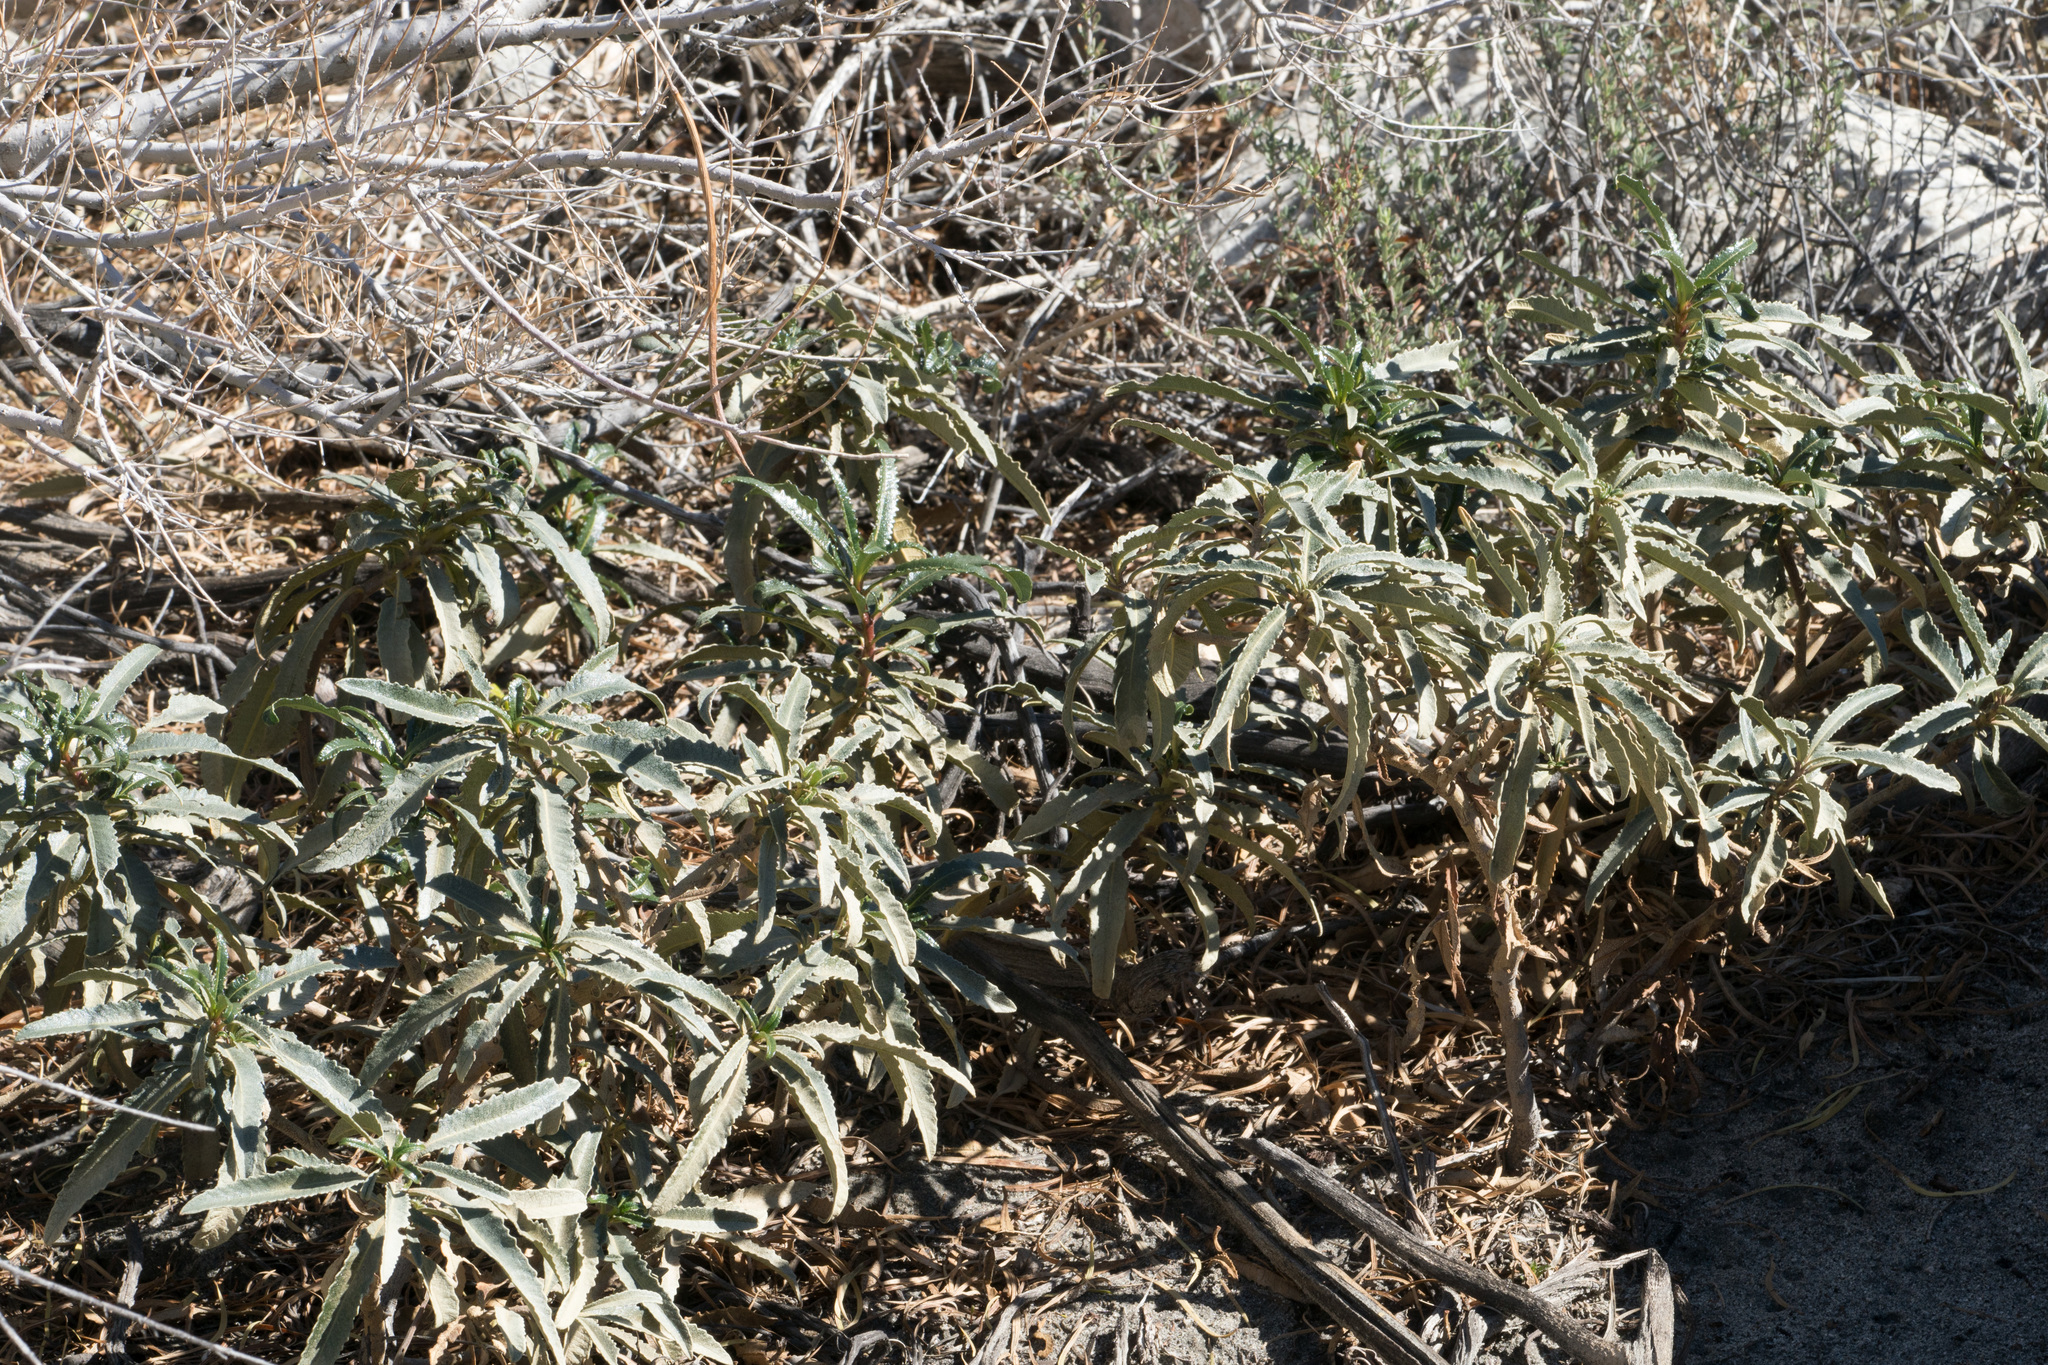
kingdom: Plantae
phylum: Tracheophyta
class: Magnoliopsida
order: Boraginales
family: Namaceae
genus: Eriodictyon
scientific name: Eriodictyon trichocalyx
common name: Hairy yerba-santa
